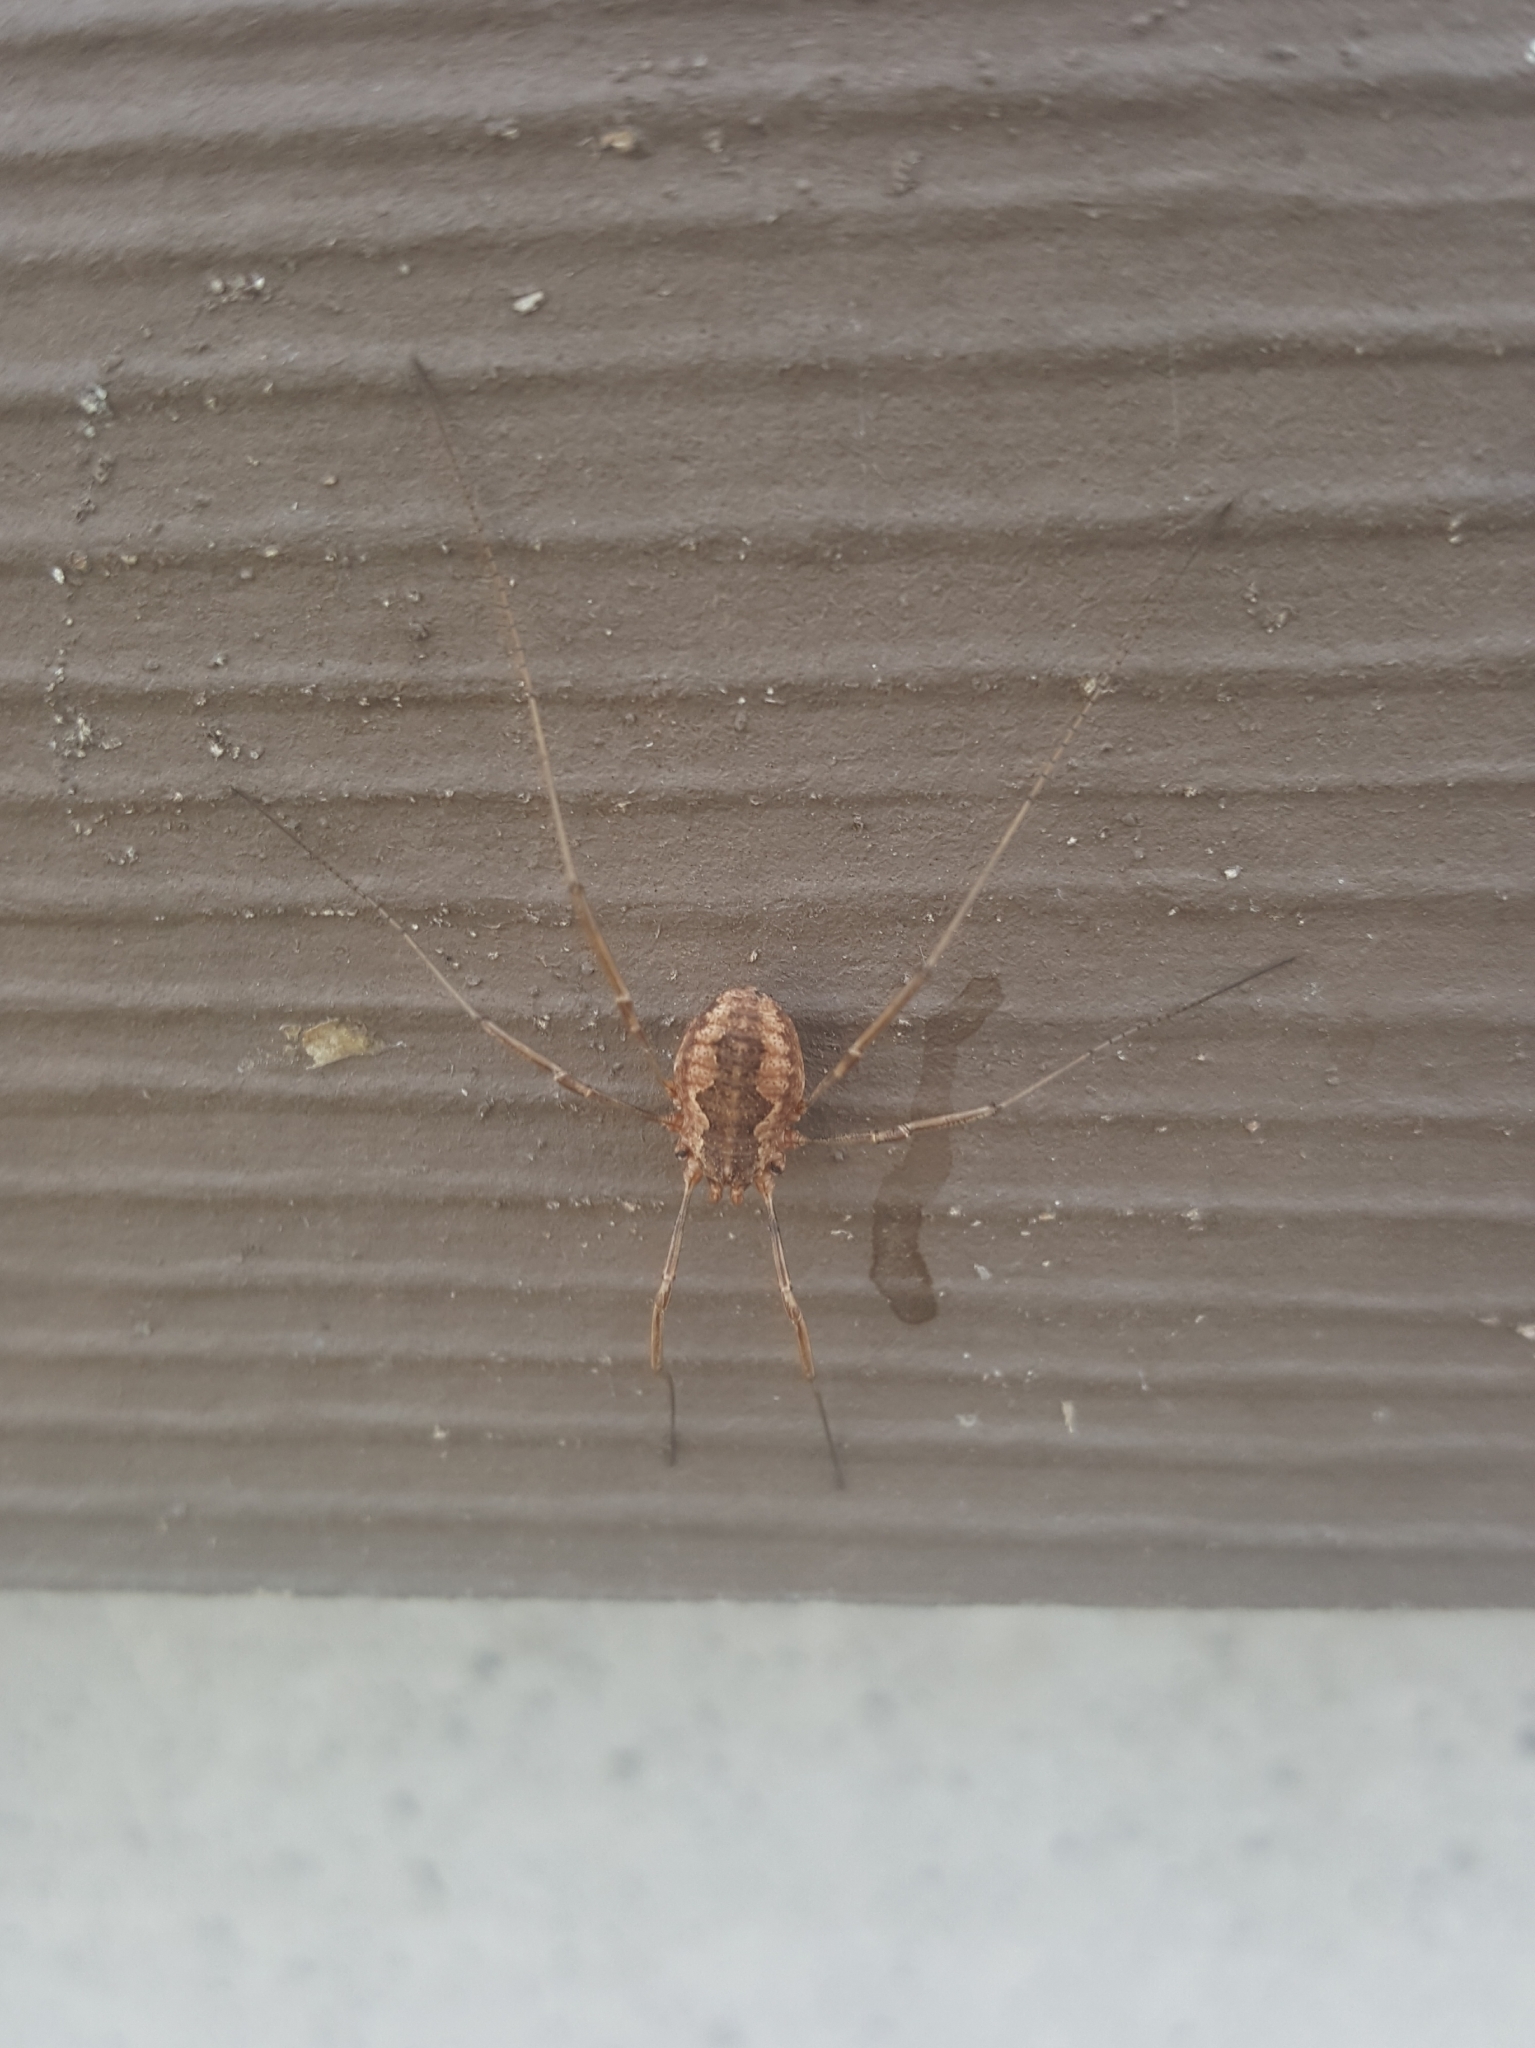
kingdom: Animalia
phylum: Arthropoda
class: Arachnida
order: Opiliones
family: Phalangiidae
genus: Phalangium
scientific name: Phalangium opilio
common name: Daddy longleg
